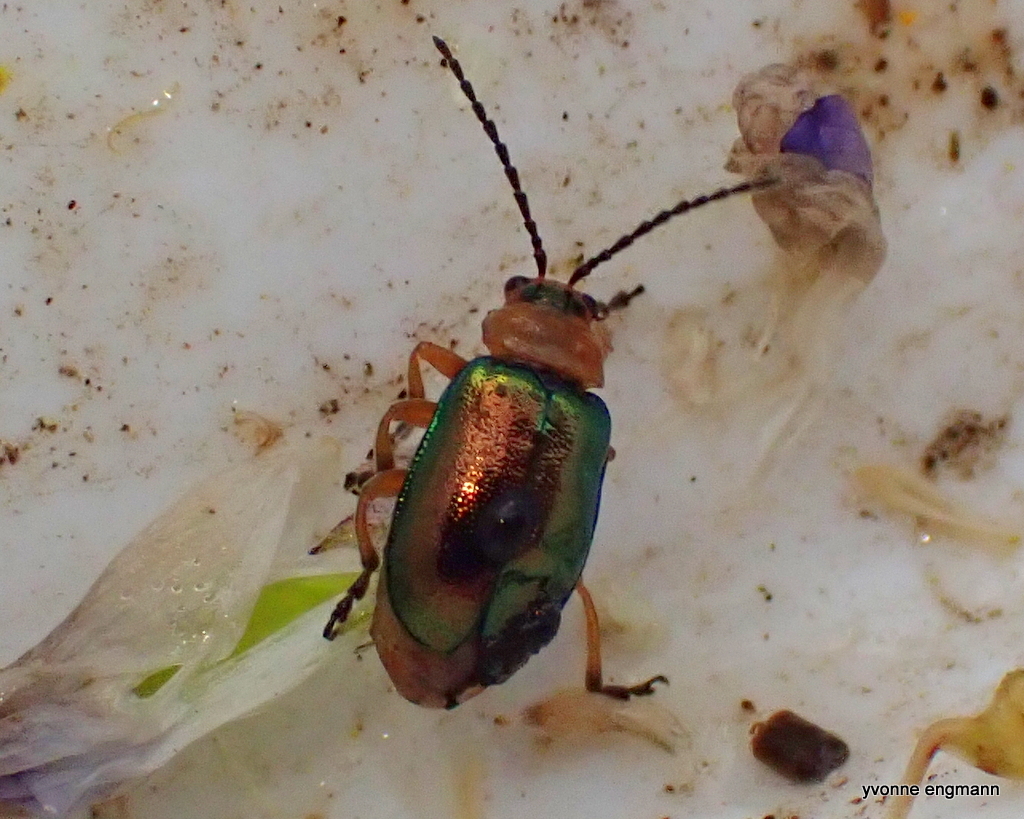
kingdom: Animalia
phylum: Arthropoda
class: Insecta
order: Coleoptera
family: Chrysomelidae
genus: Sermylassa
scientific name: Sermylassa halensis
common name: Leaf beetle
